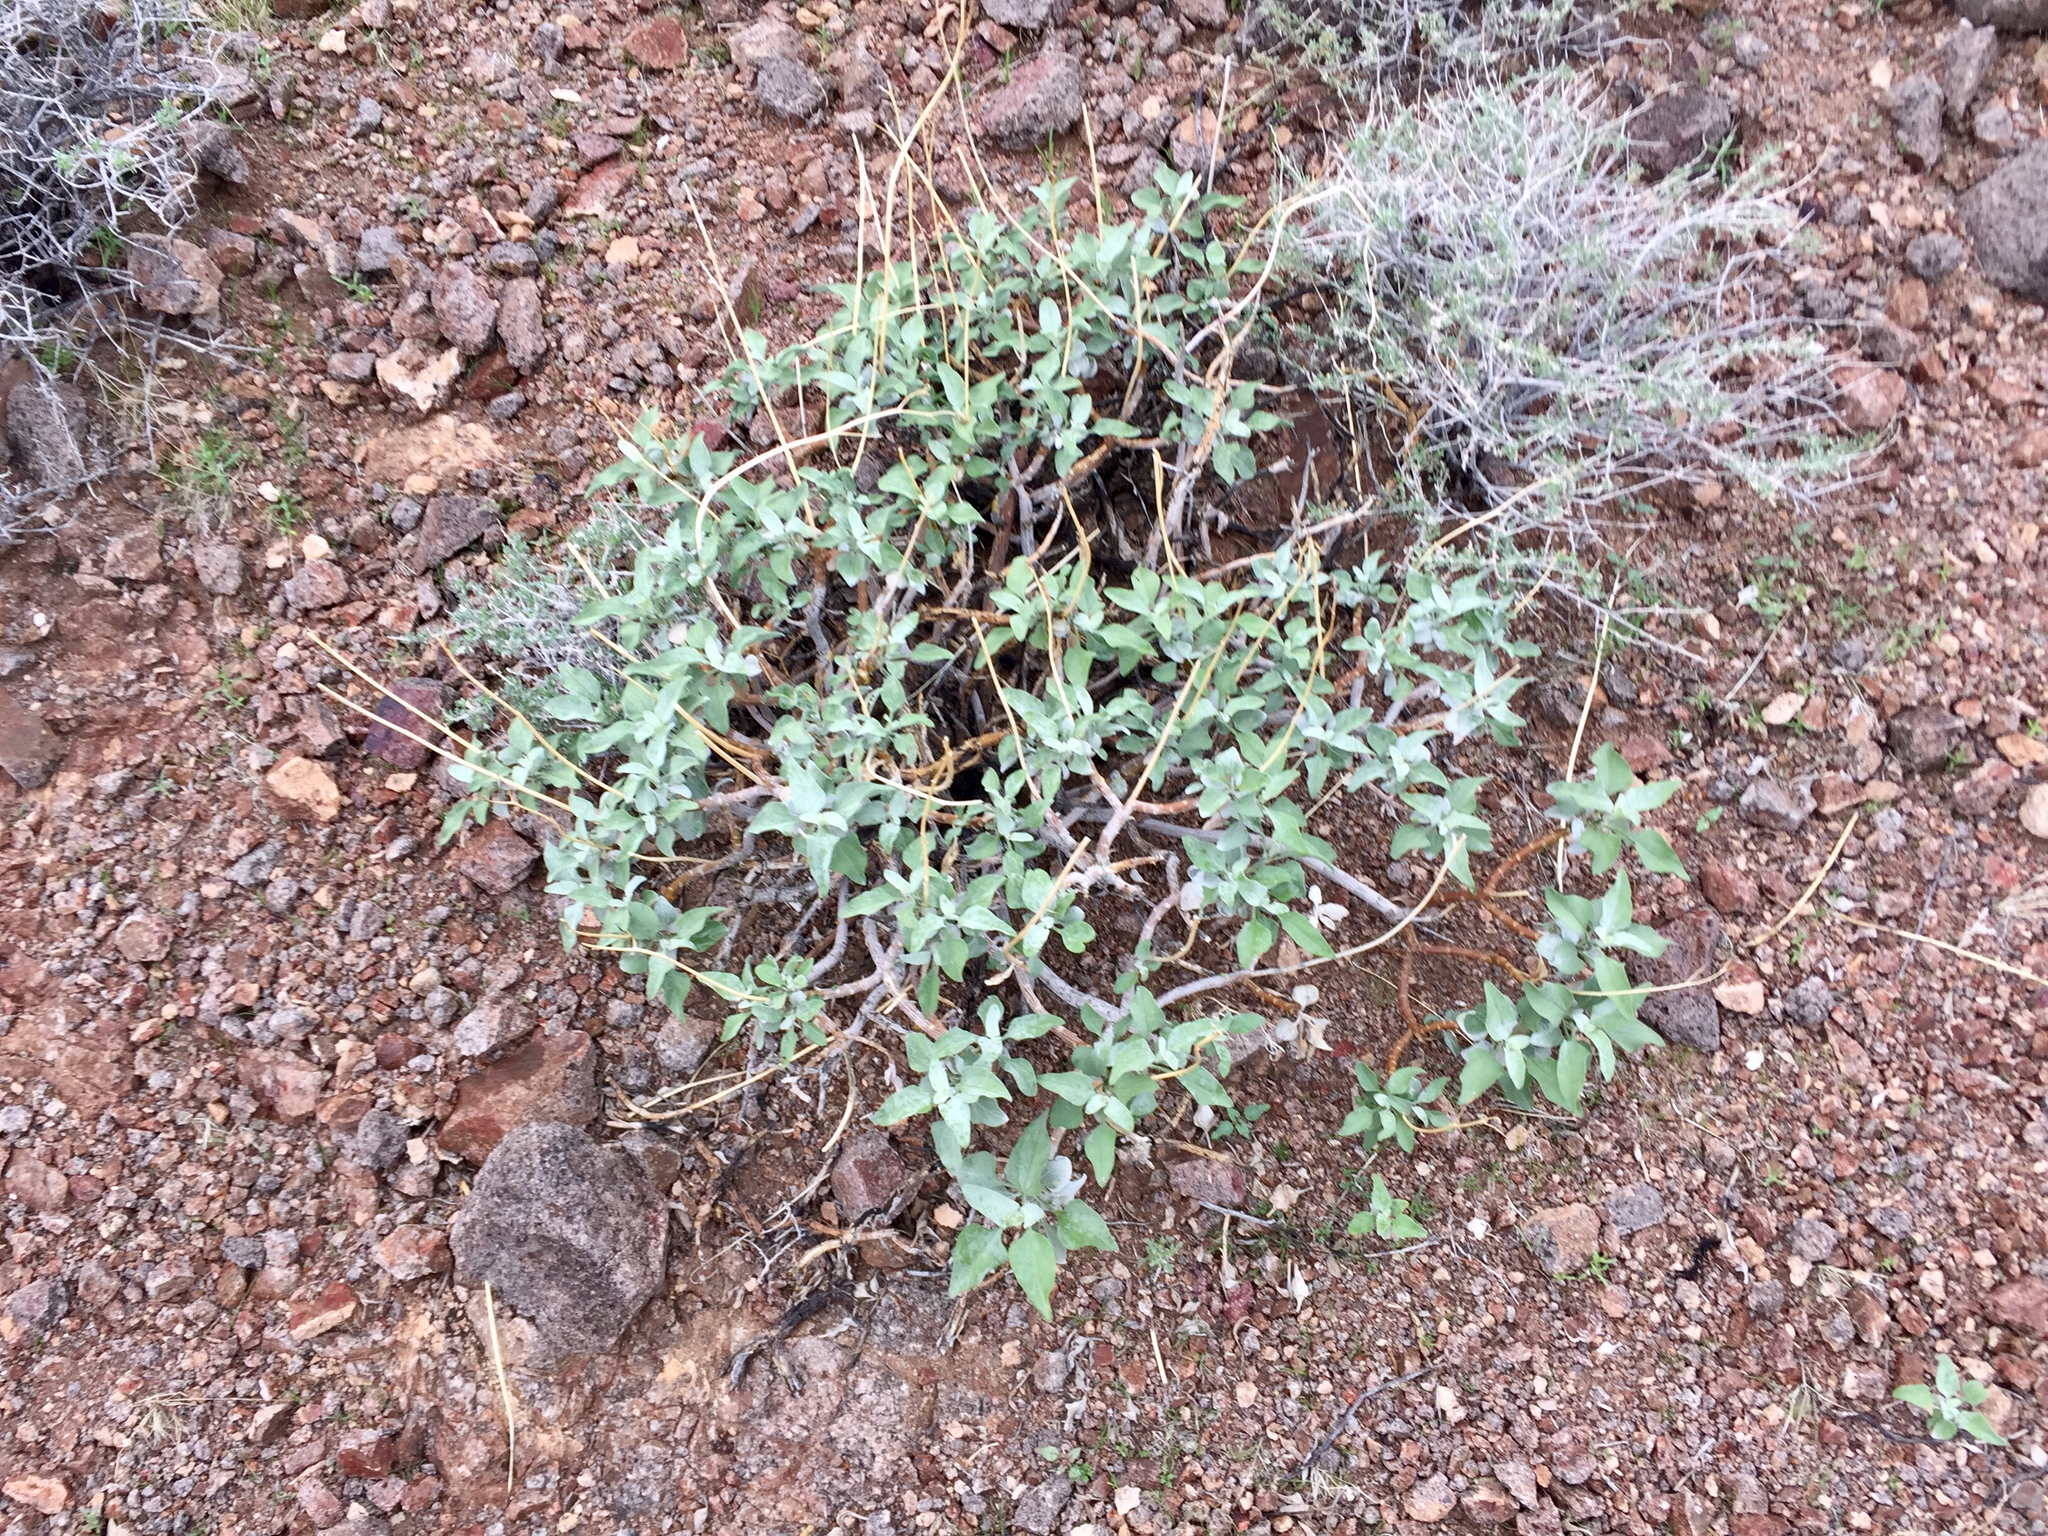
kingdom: Plantae
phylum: Tracheophyta
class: Magnoliopsida
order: Asterales
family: Asteraceae
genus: Encelia
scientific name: Encelia farinosa
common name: Brittlebush
